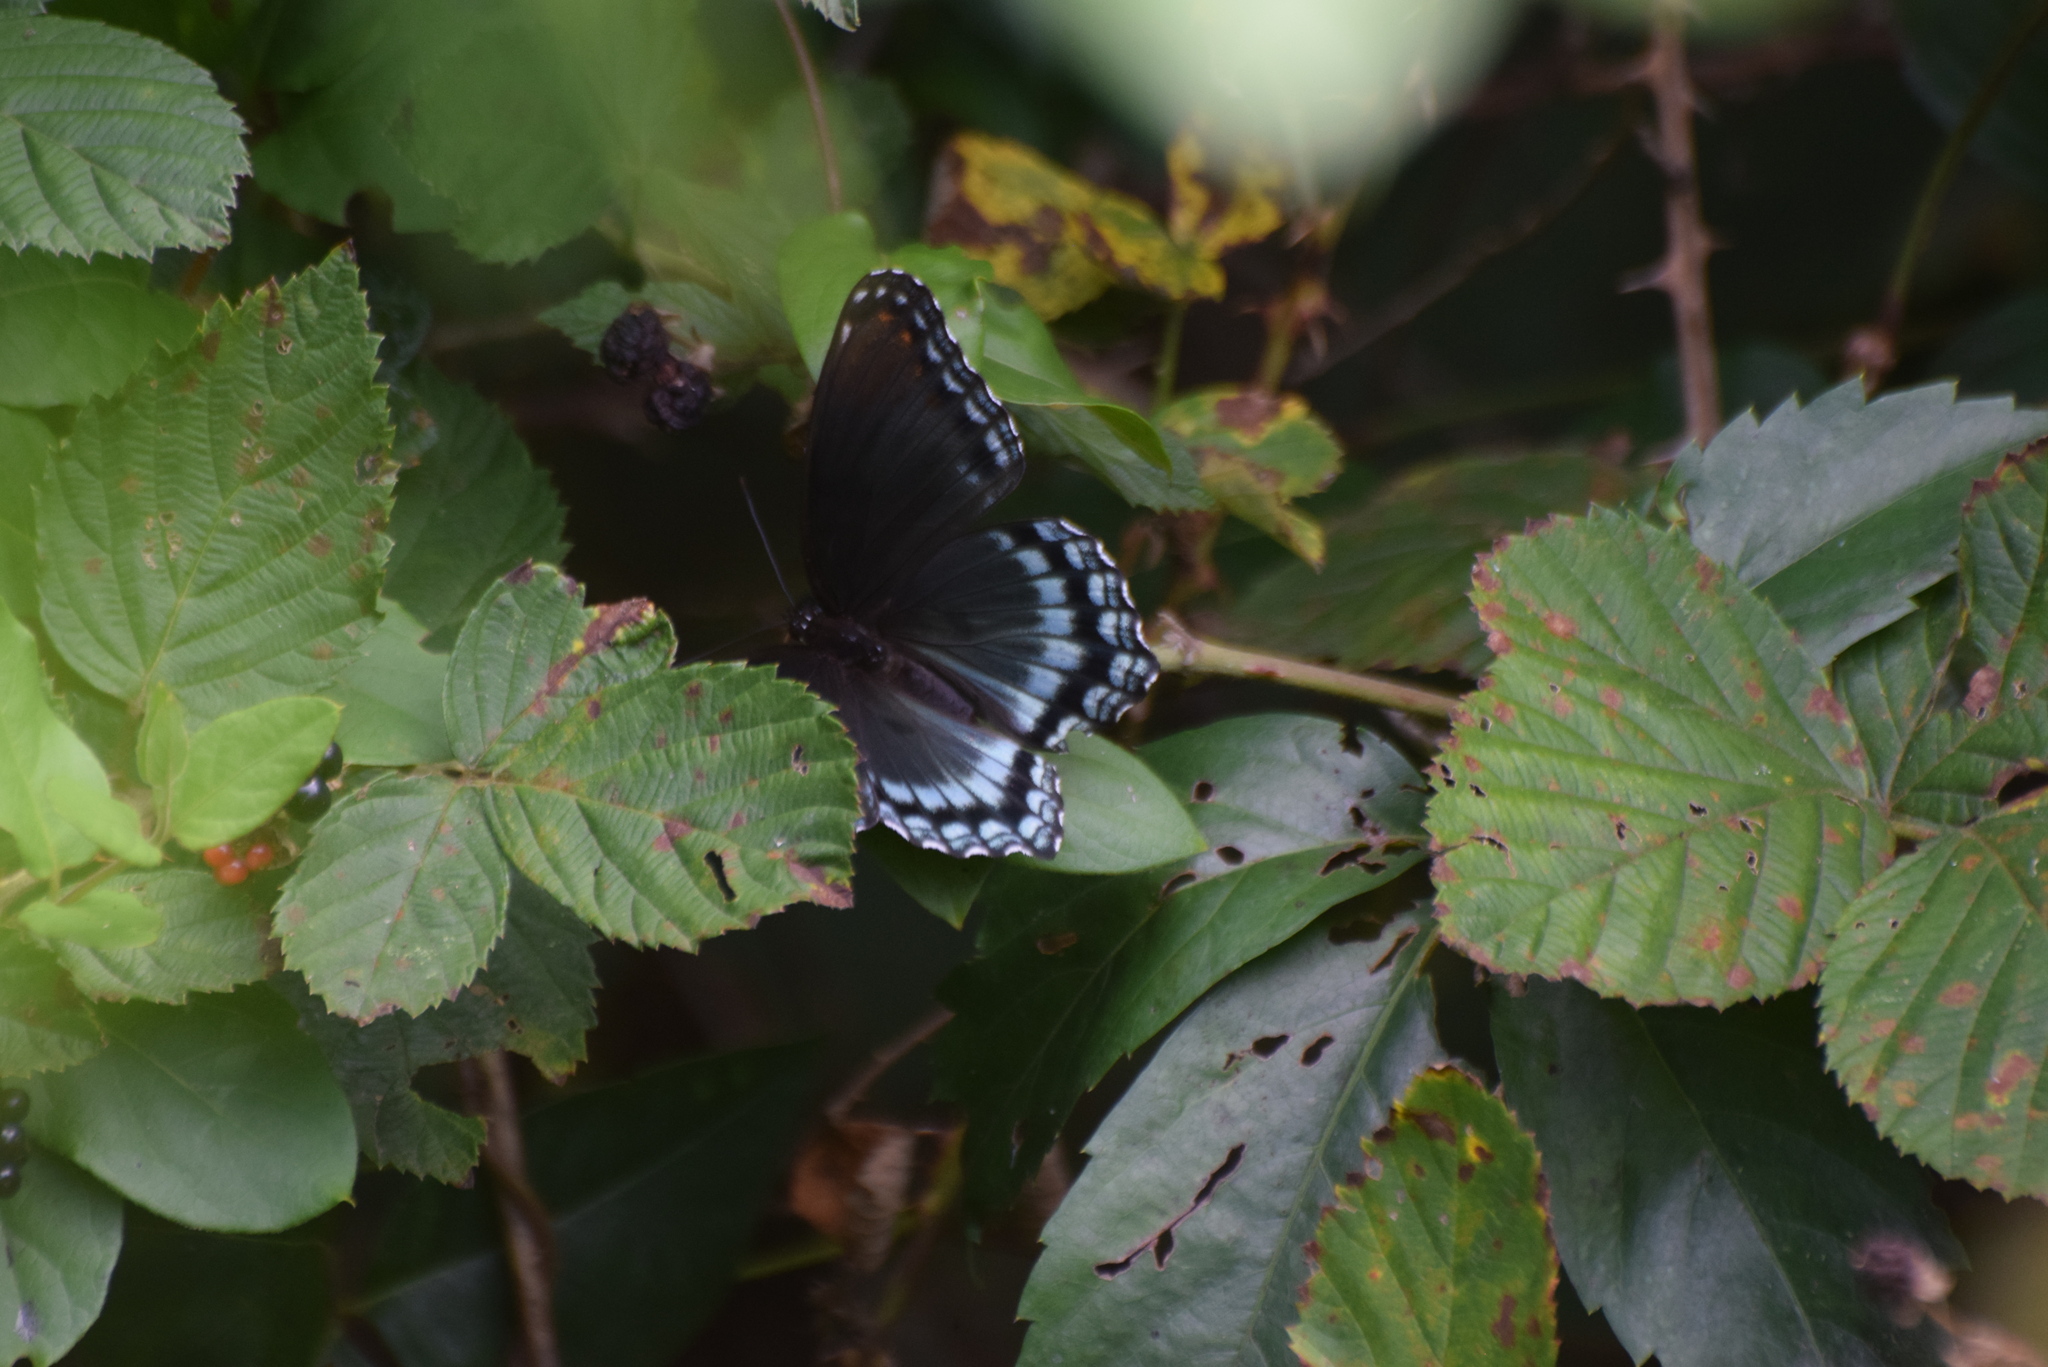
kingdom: Animalia
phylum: Arthropoda
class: Insecta
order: Lepidoptera
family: Nymphalidae
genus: Limenitis
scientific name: Limenitis astyanax
